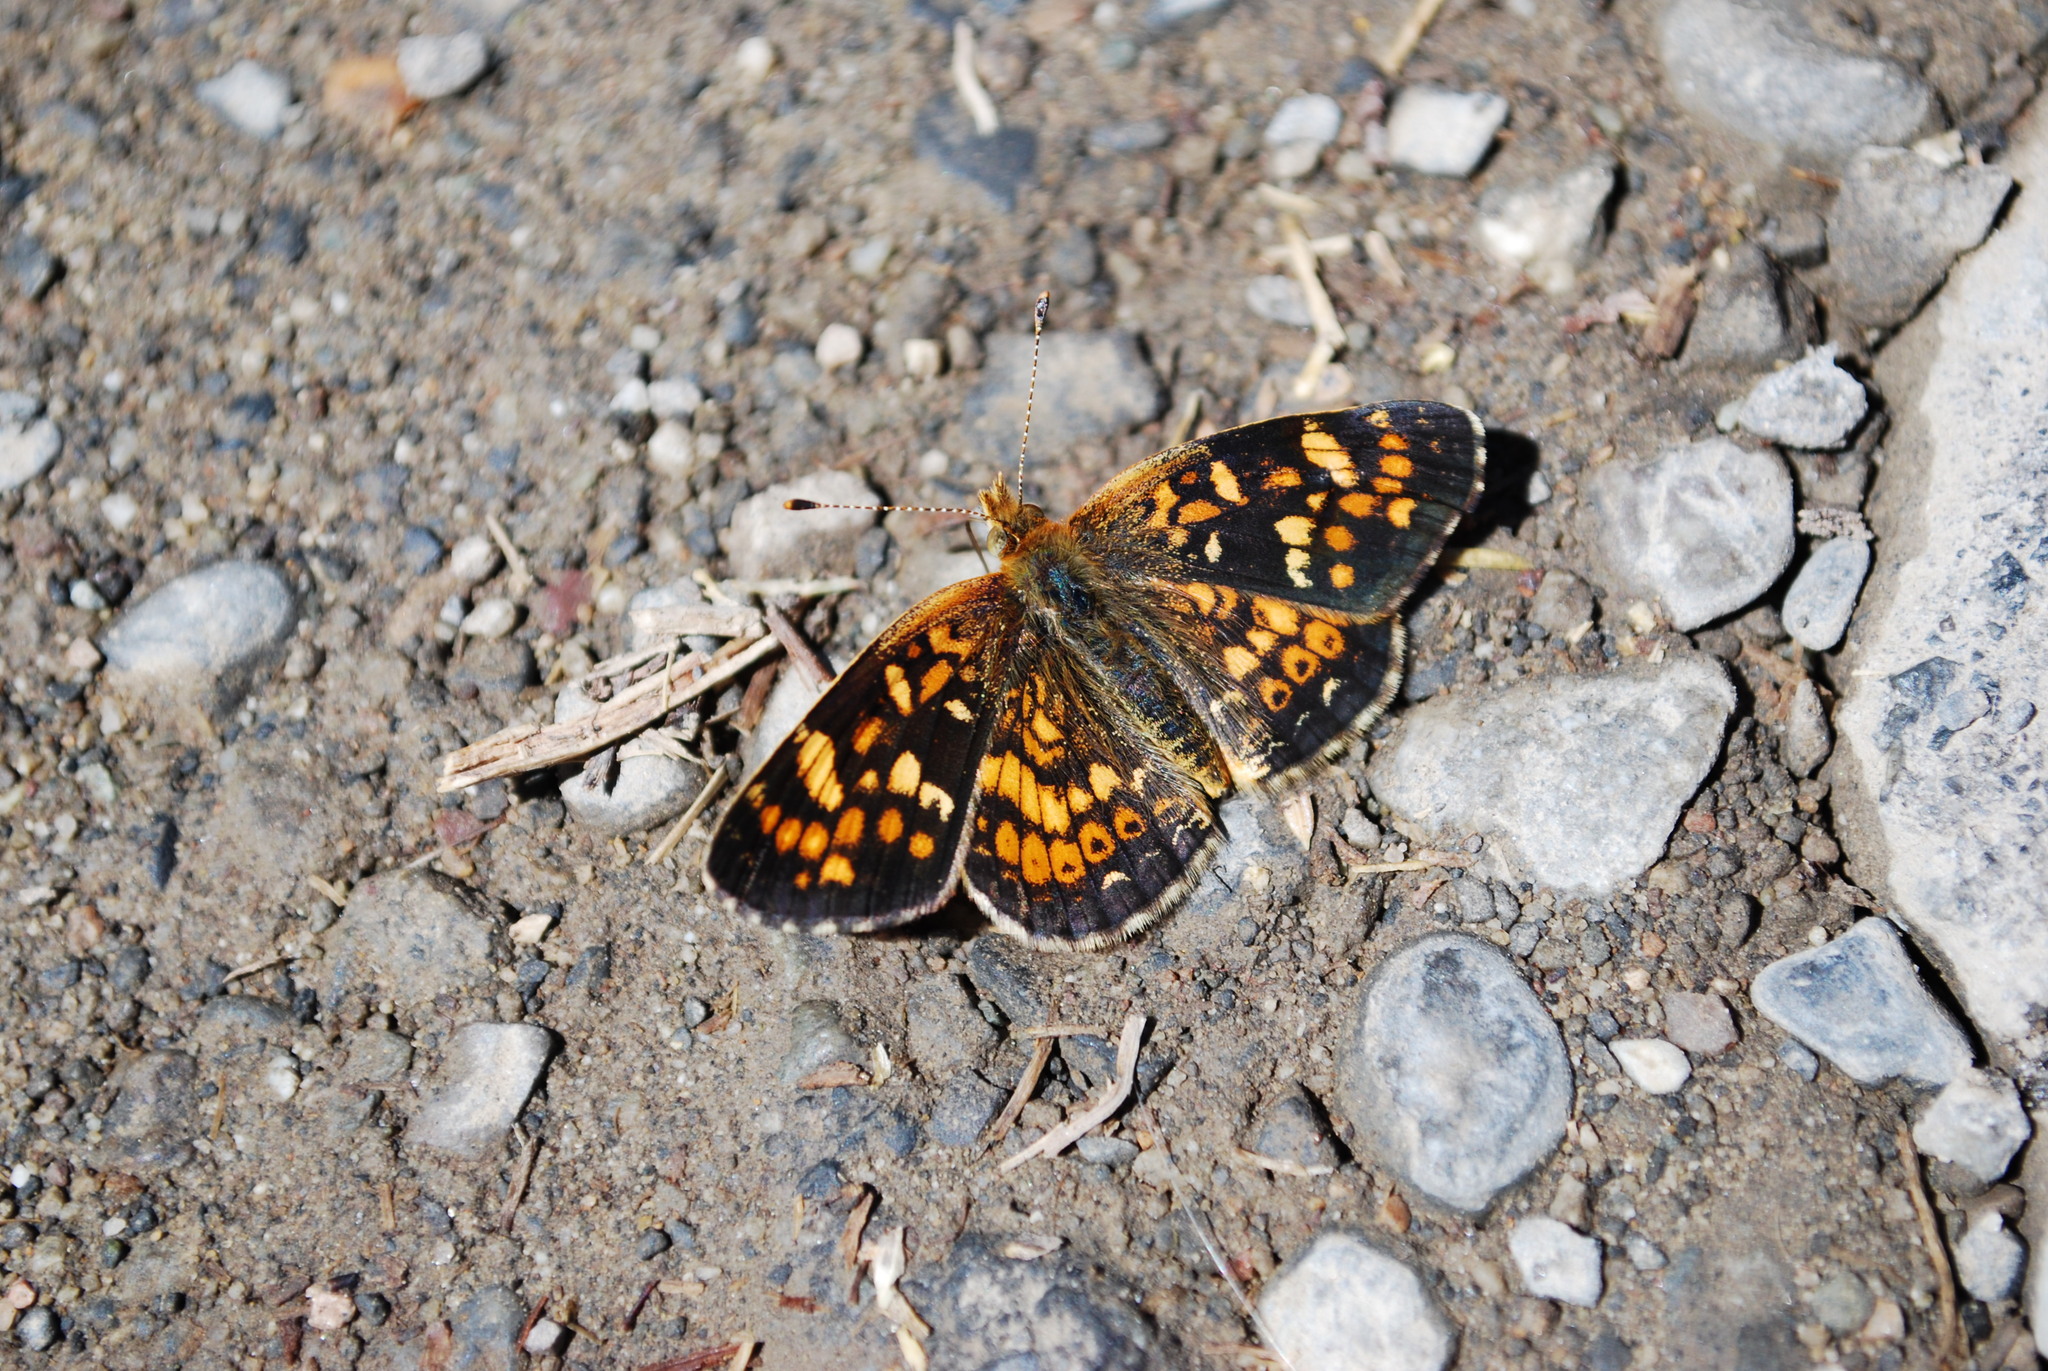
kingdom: Animalia
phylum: Arthropoda
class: Insecta
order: Lepidoptera
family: Nymphalidae
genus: Phyciodes
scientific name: Phyciodes tharos
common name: Pearl crescent
